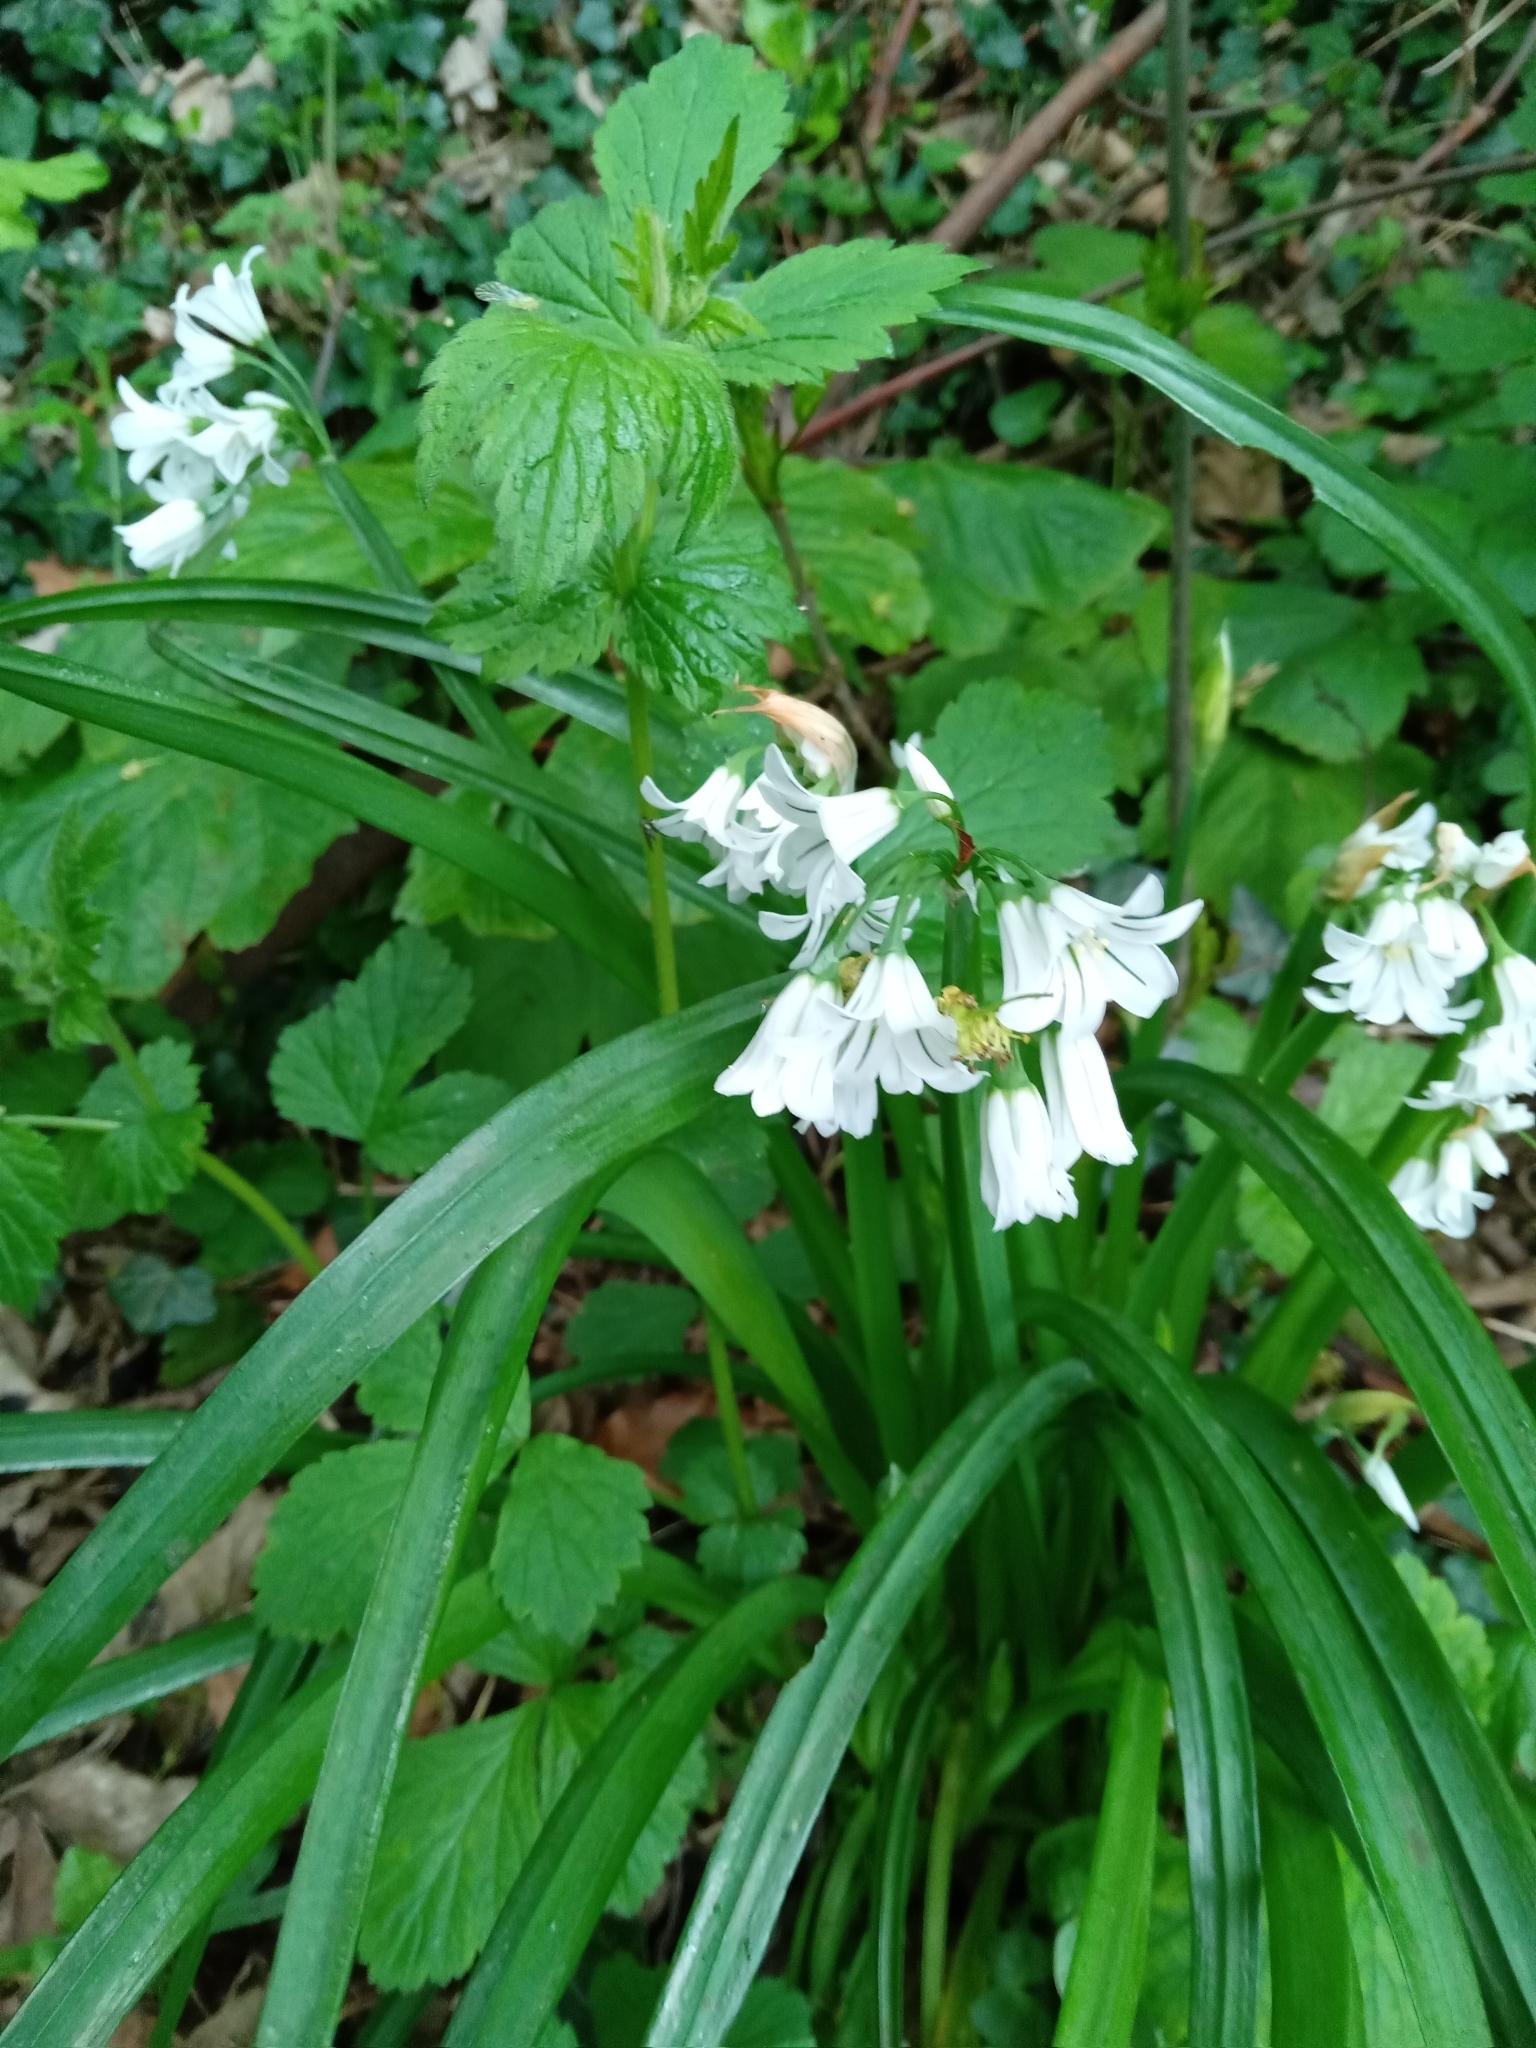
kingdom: Plantae
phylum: Tracheophyta
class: Liliopsida
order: Asparagales
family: Amaryllidaceae
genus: Allium
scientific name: Allium triquetrum
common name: Three-cornered garlic
